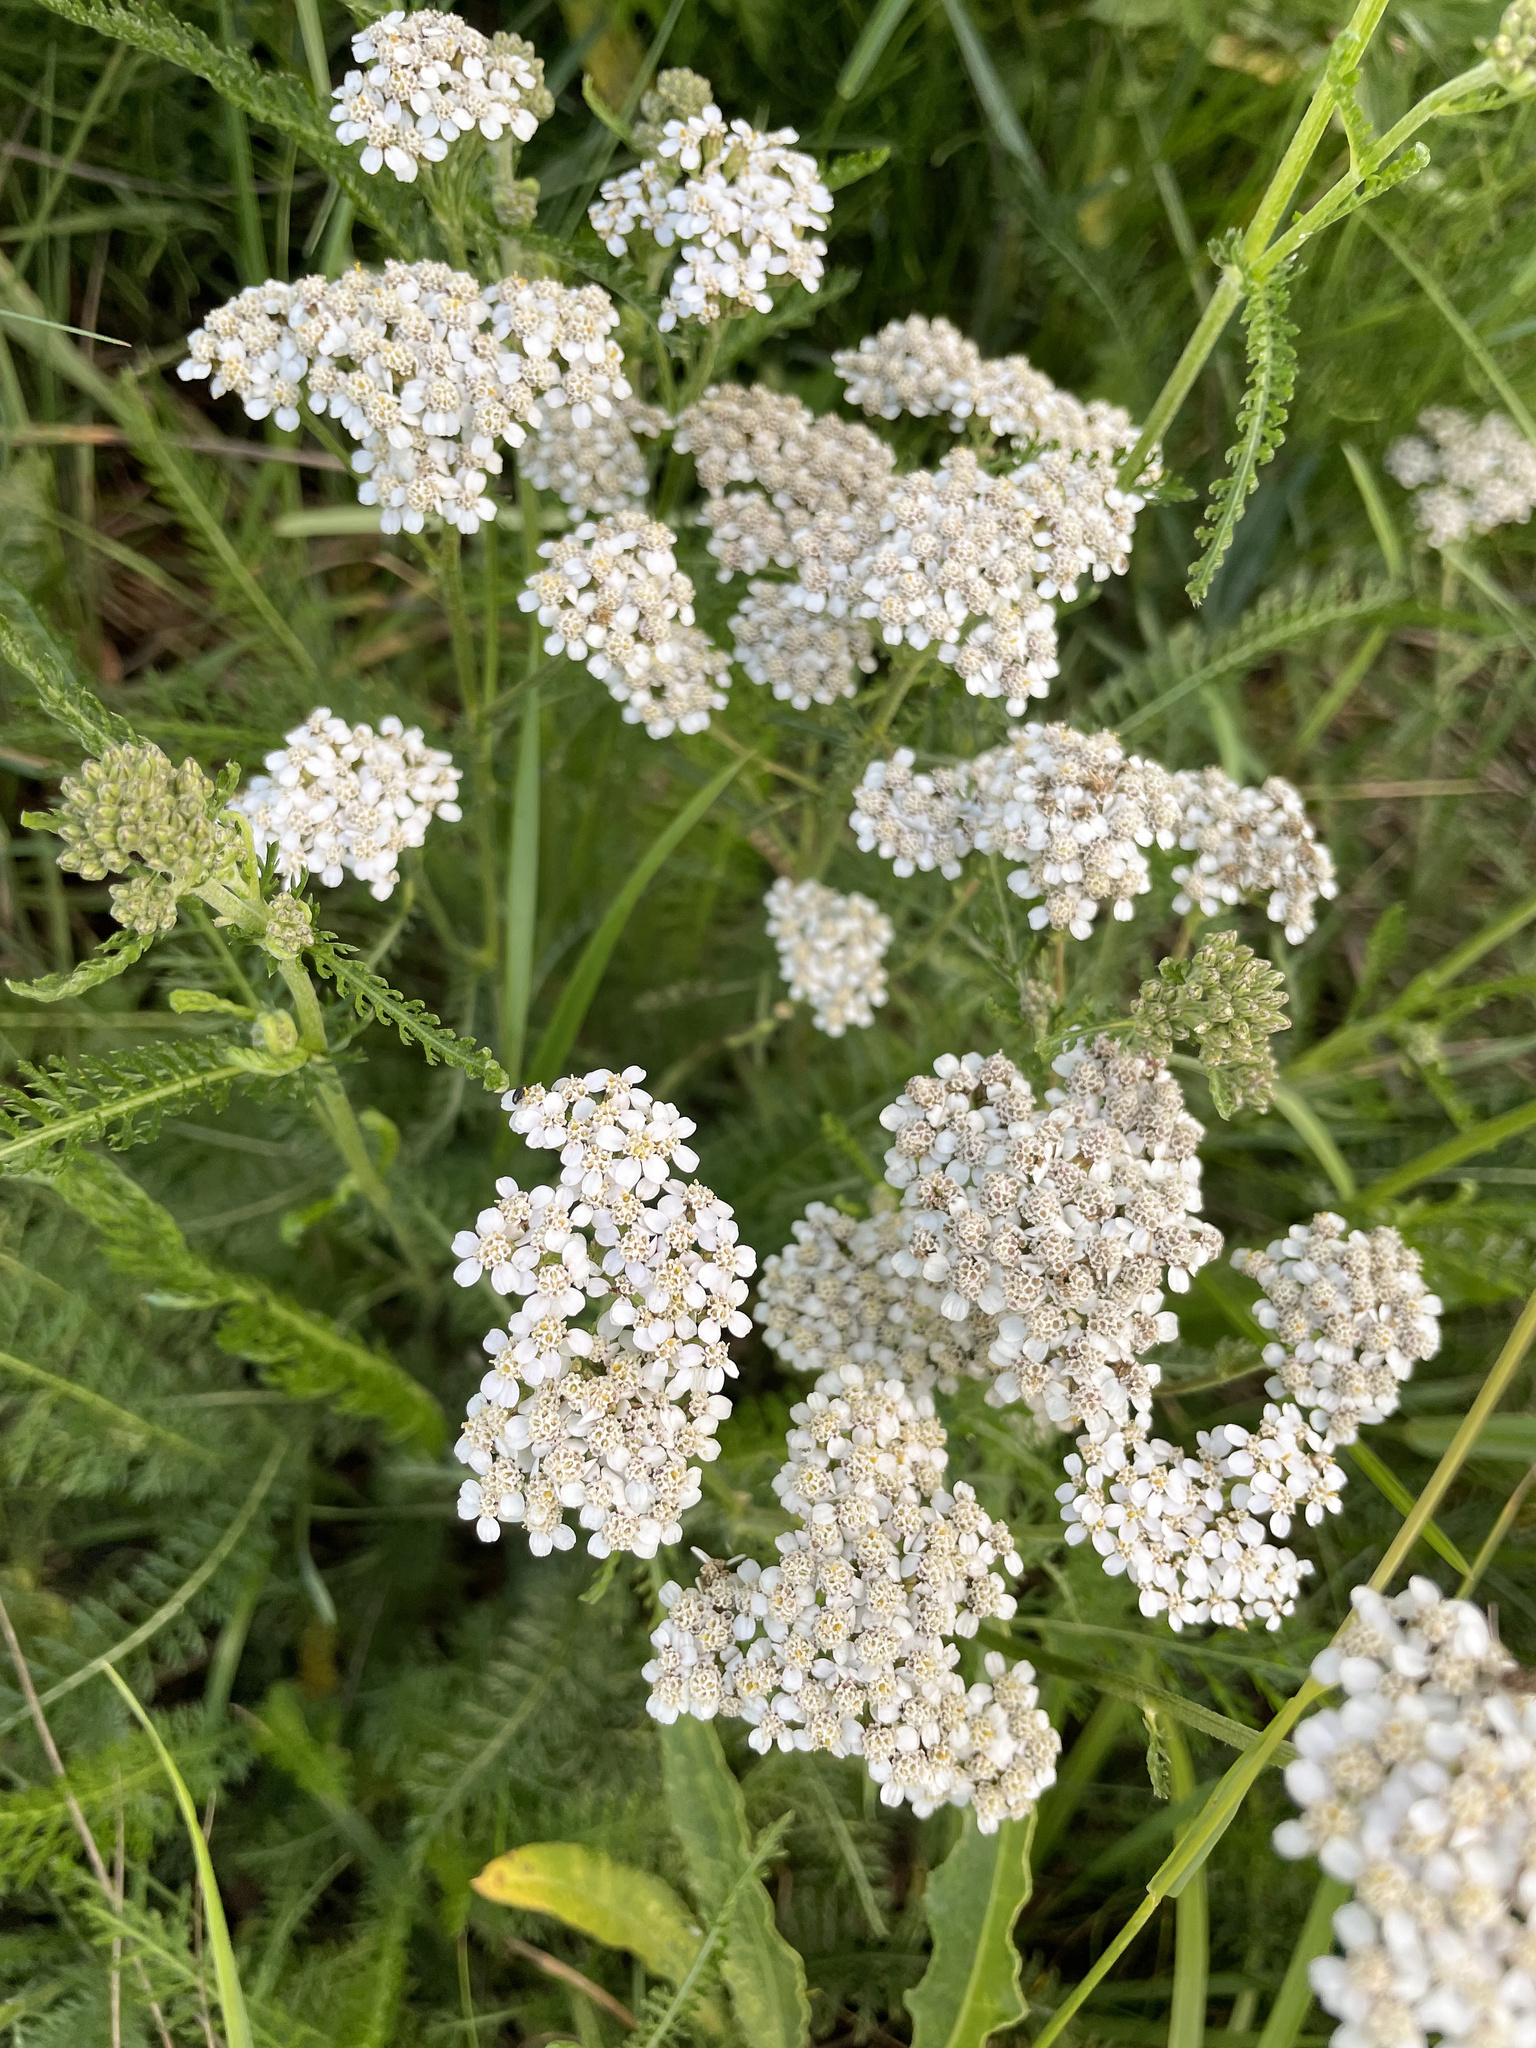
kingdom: Plantae
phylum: Tracheophyta
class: Magnoliopsida
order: Asterales
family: Asteraceae
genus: Achillea
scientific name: Achillea millefolium
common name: Yarrow
